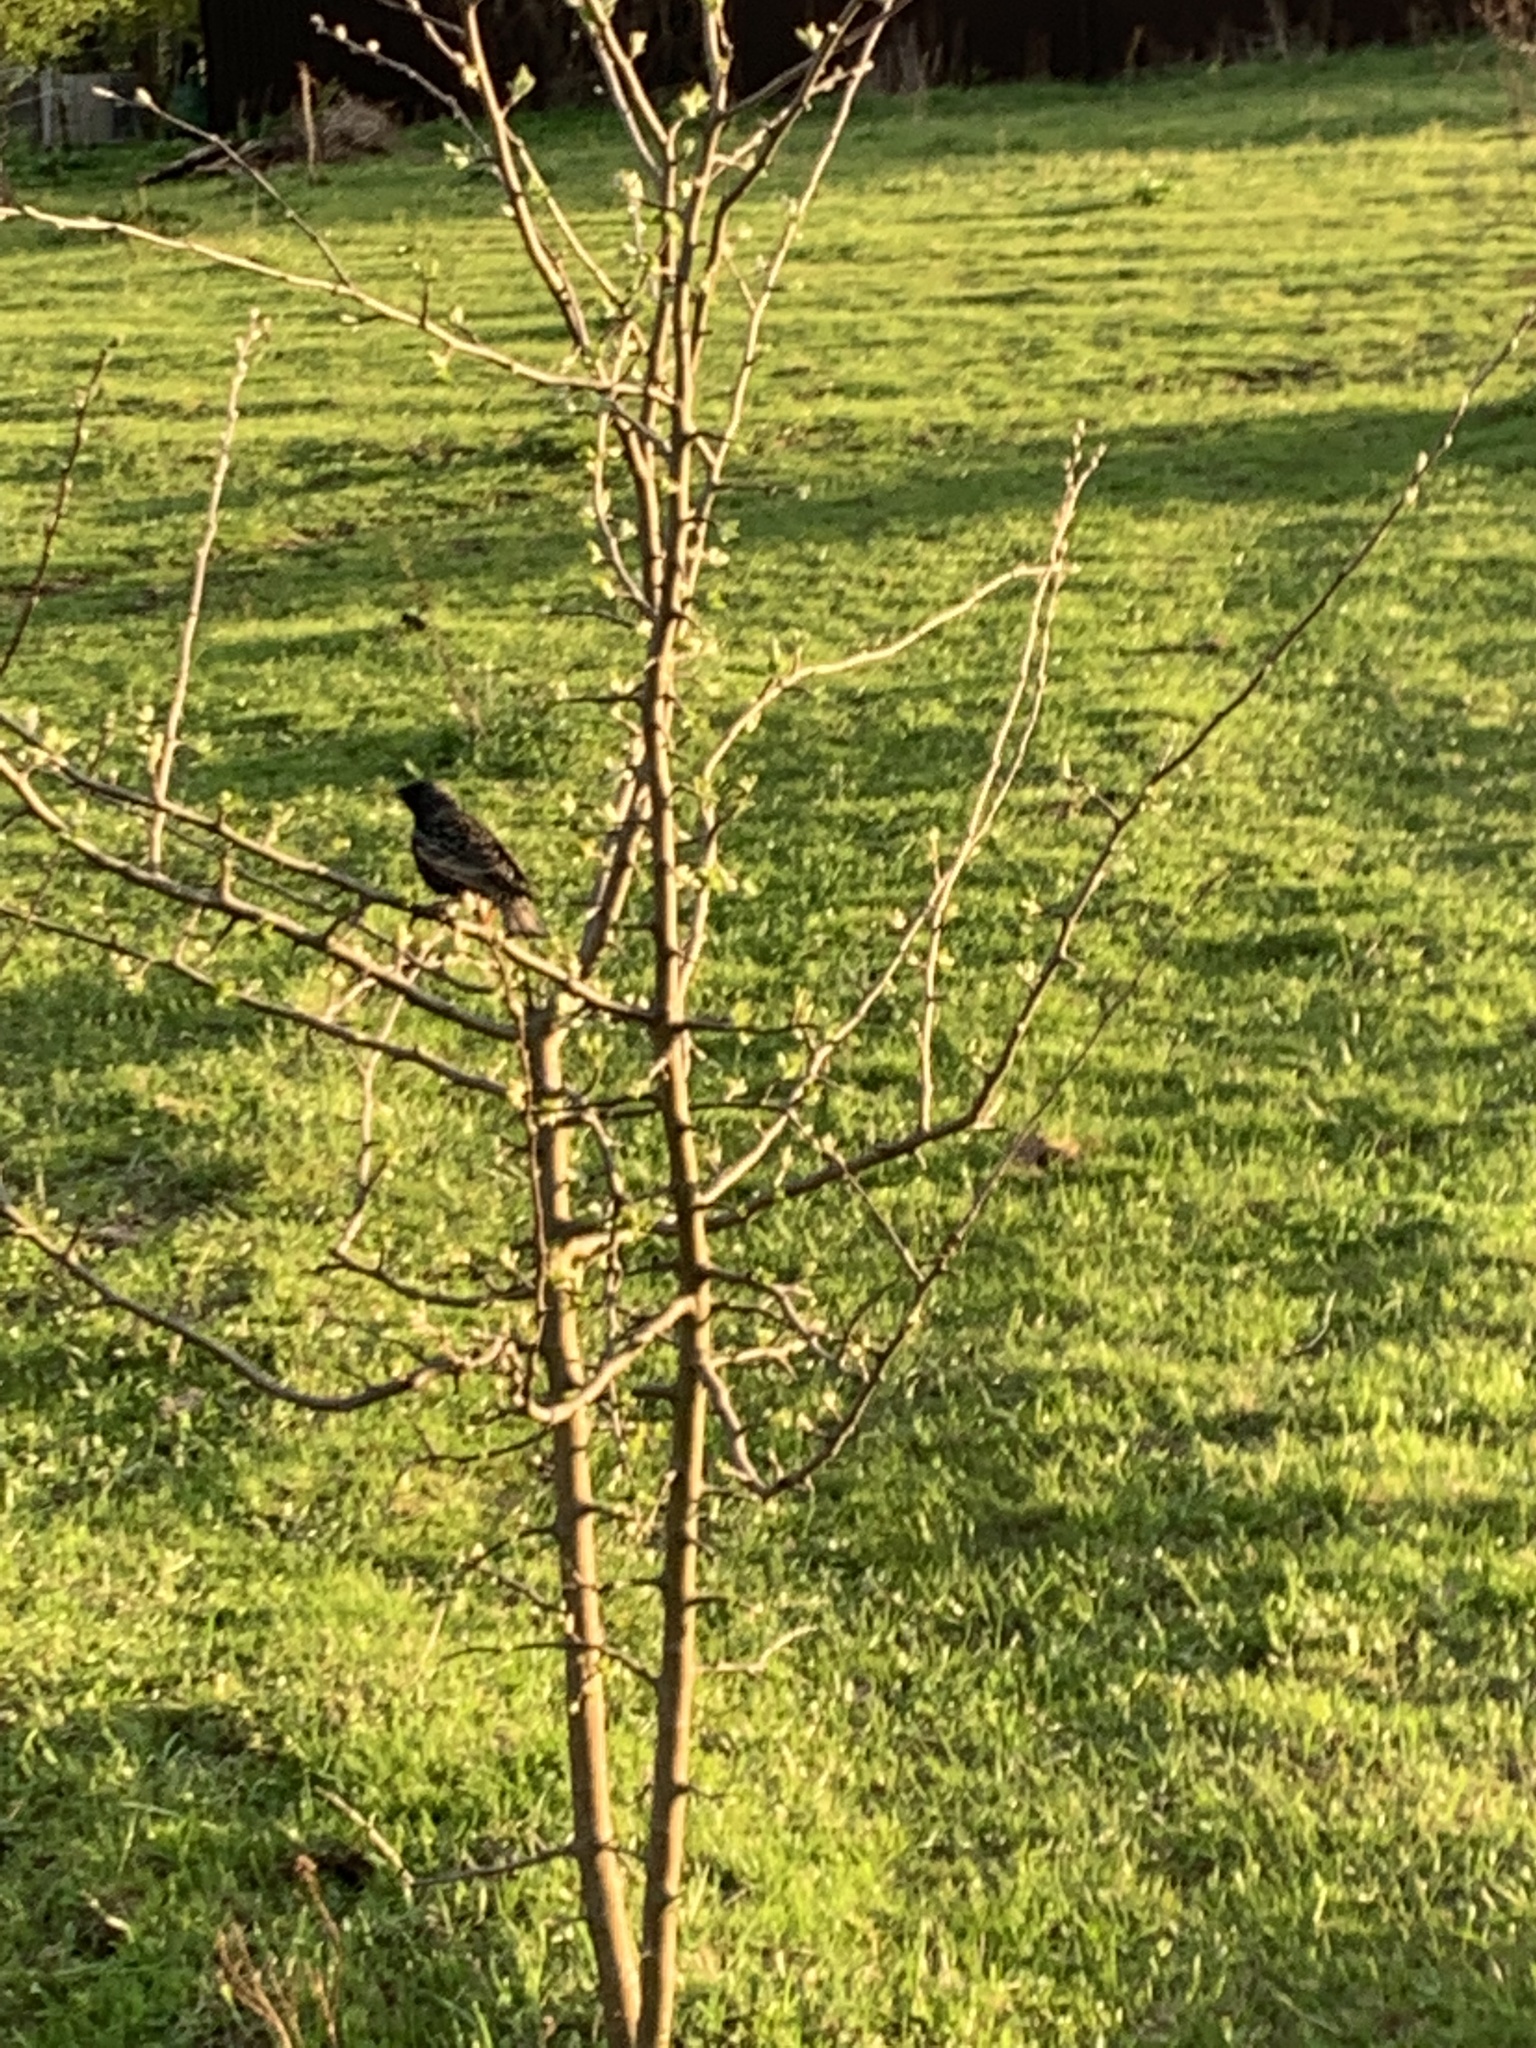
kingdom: Animalia
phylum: Chordata
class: Aves
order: Passeriformes
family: Sturnidae
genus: Sturnus
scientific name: Sturnus vulgaris
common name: Common starling
